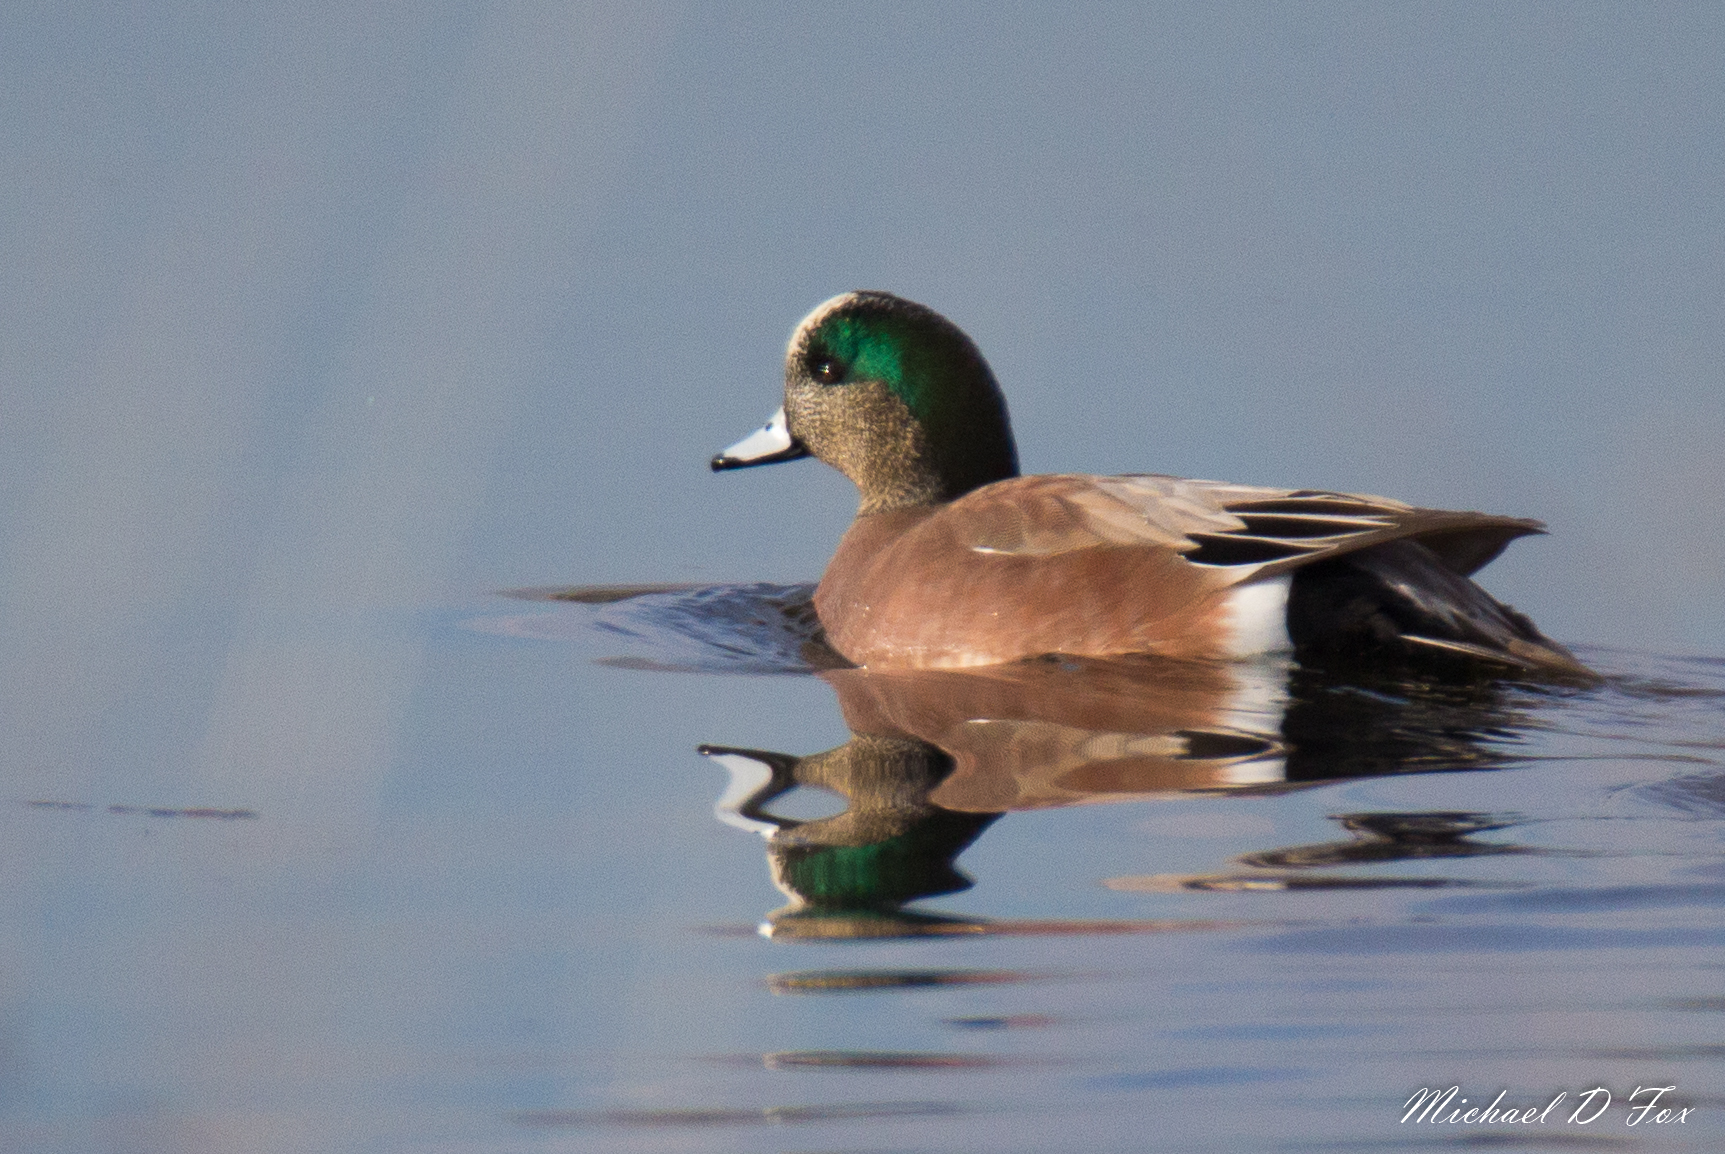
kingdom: Animalia
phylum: Chordata
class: Aves
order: Anseriformes
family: Anatidae
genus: Mareca
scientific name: Mareca americana
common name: American wigeon
